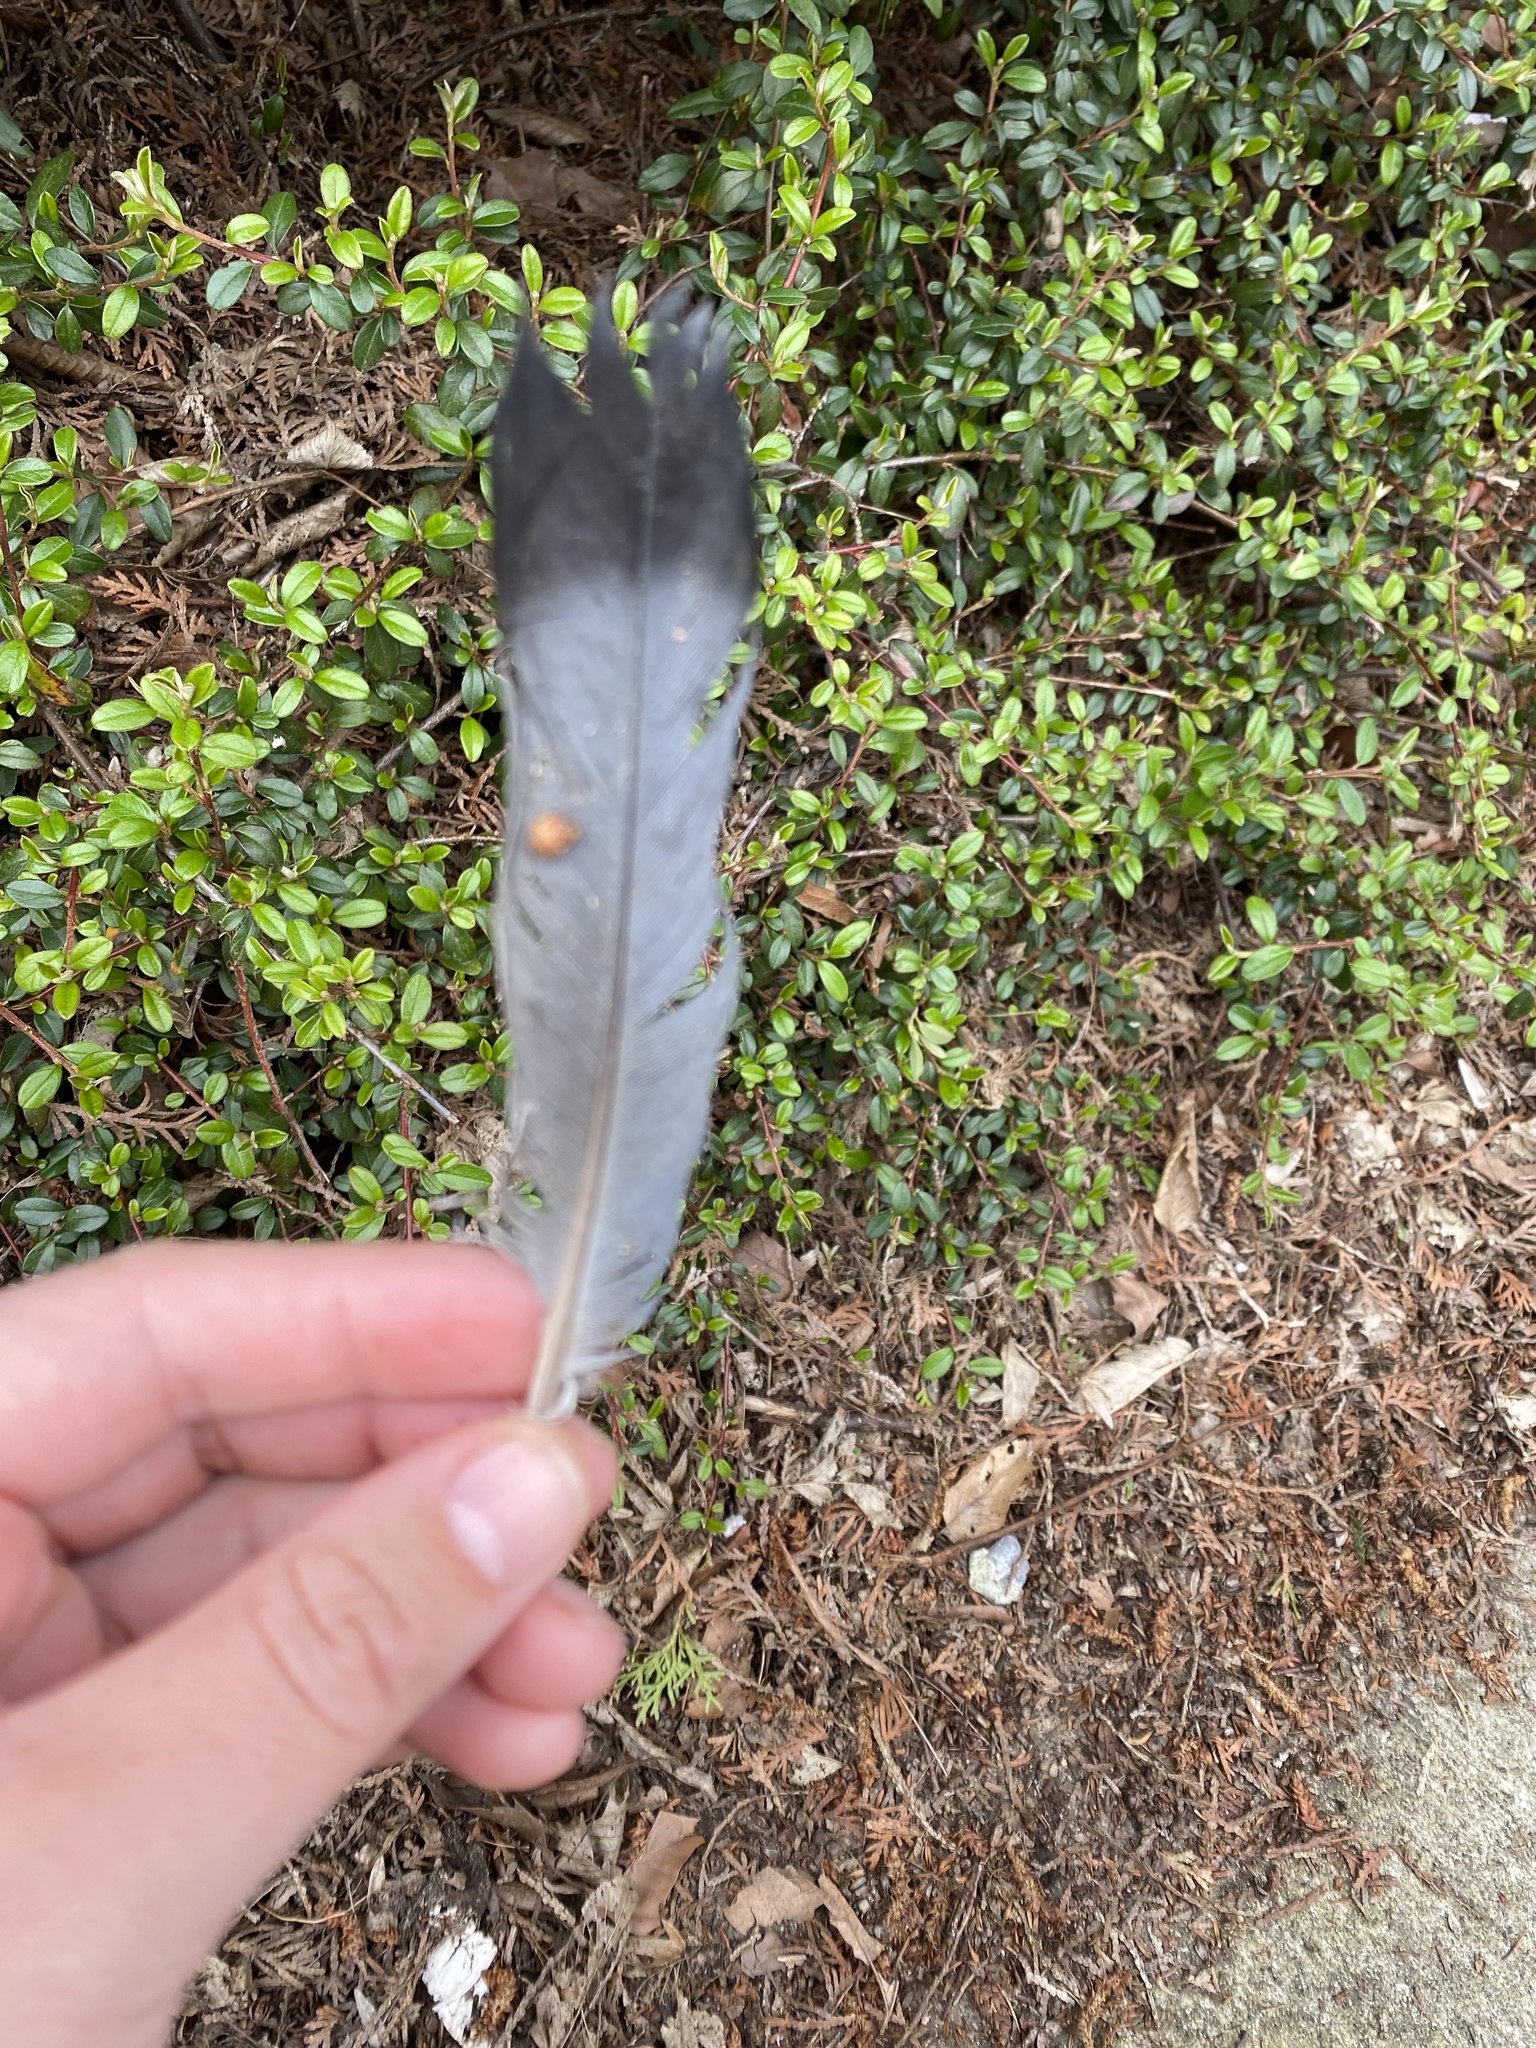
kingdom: Animalia
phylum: Chordata
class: Aves
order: Columbiformes
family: Columbidae
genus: Columba
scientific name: Columba livia
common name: Rock pigeon
